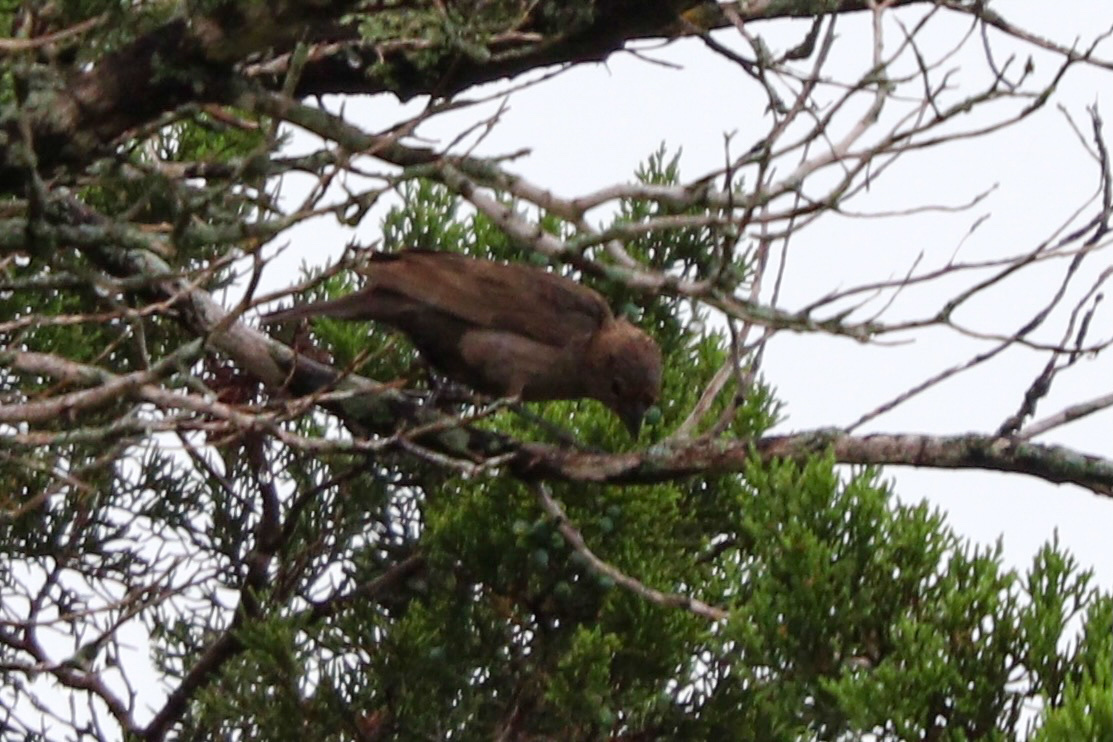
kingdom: Animalia
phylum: Chordata
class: Aves
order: Passeriformes
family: Icteridae
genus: Molothrus
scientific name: Molothrus ater
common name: Brown-headed cowbird
